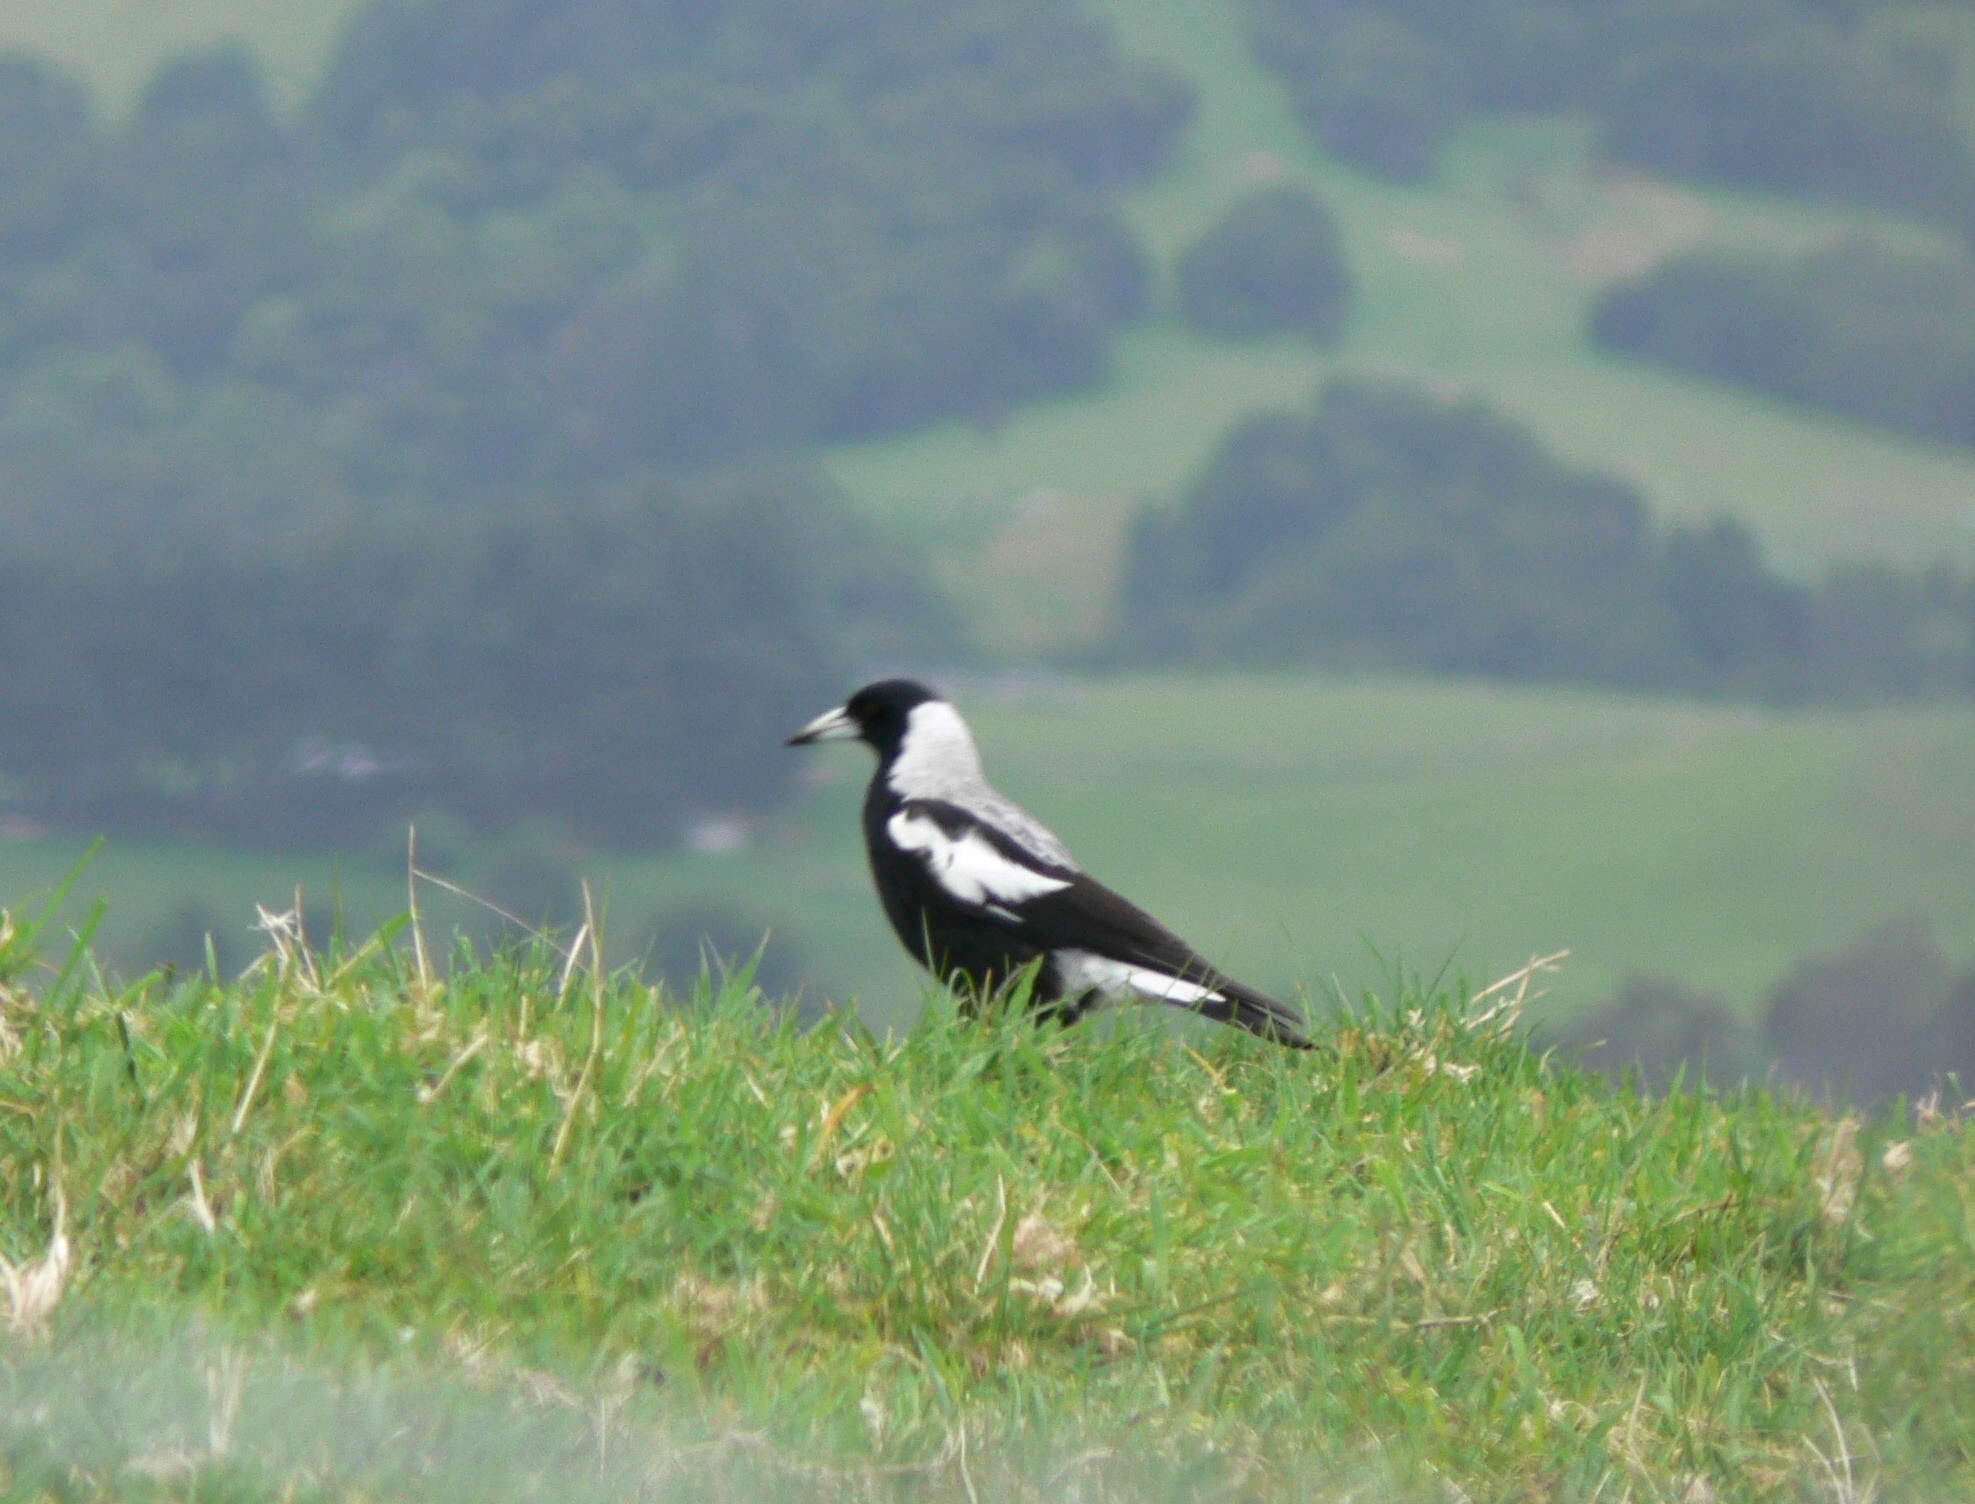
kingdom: Animalia
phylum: Chordata
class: Aves
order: Passeriformes
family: Cracticidae
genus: Gymnorhina
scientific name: Gymnorhina tibicen
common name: Australian magpie
